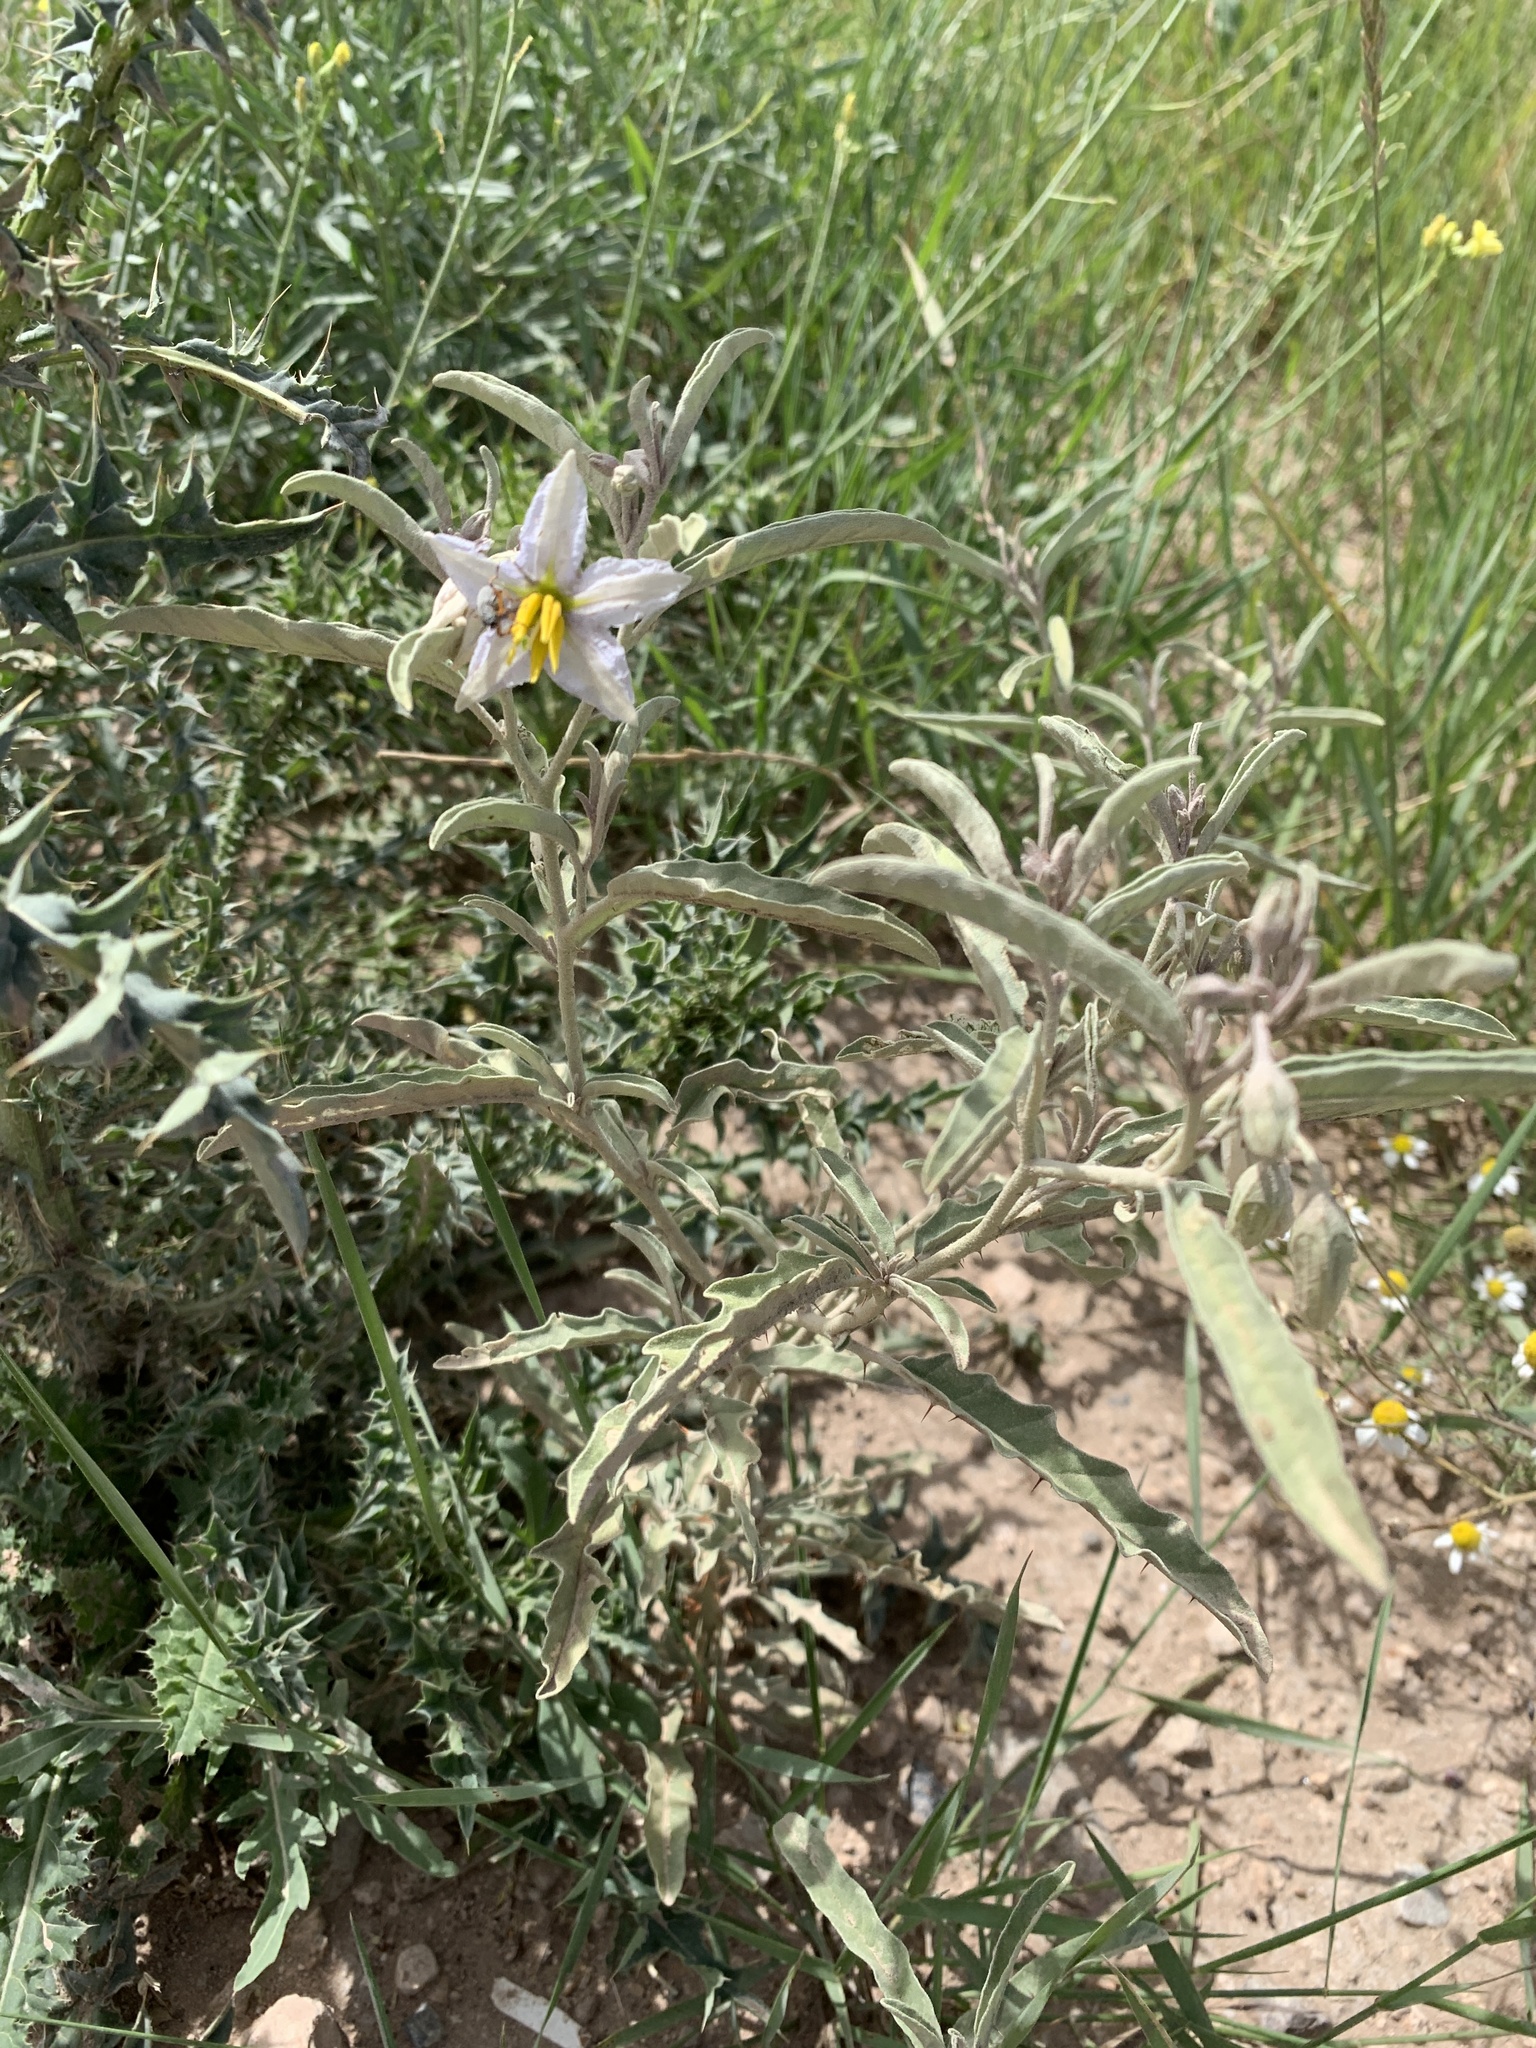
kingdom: Plantae
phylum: Tracheophyta
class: Magnoliopsida
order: Solanales
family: Solanaceae
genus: Solanum
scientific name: Solanum elaeagnifolium
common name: Silverleaf nightshade
